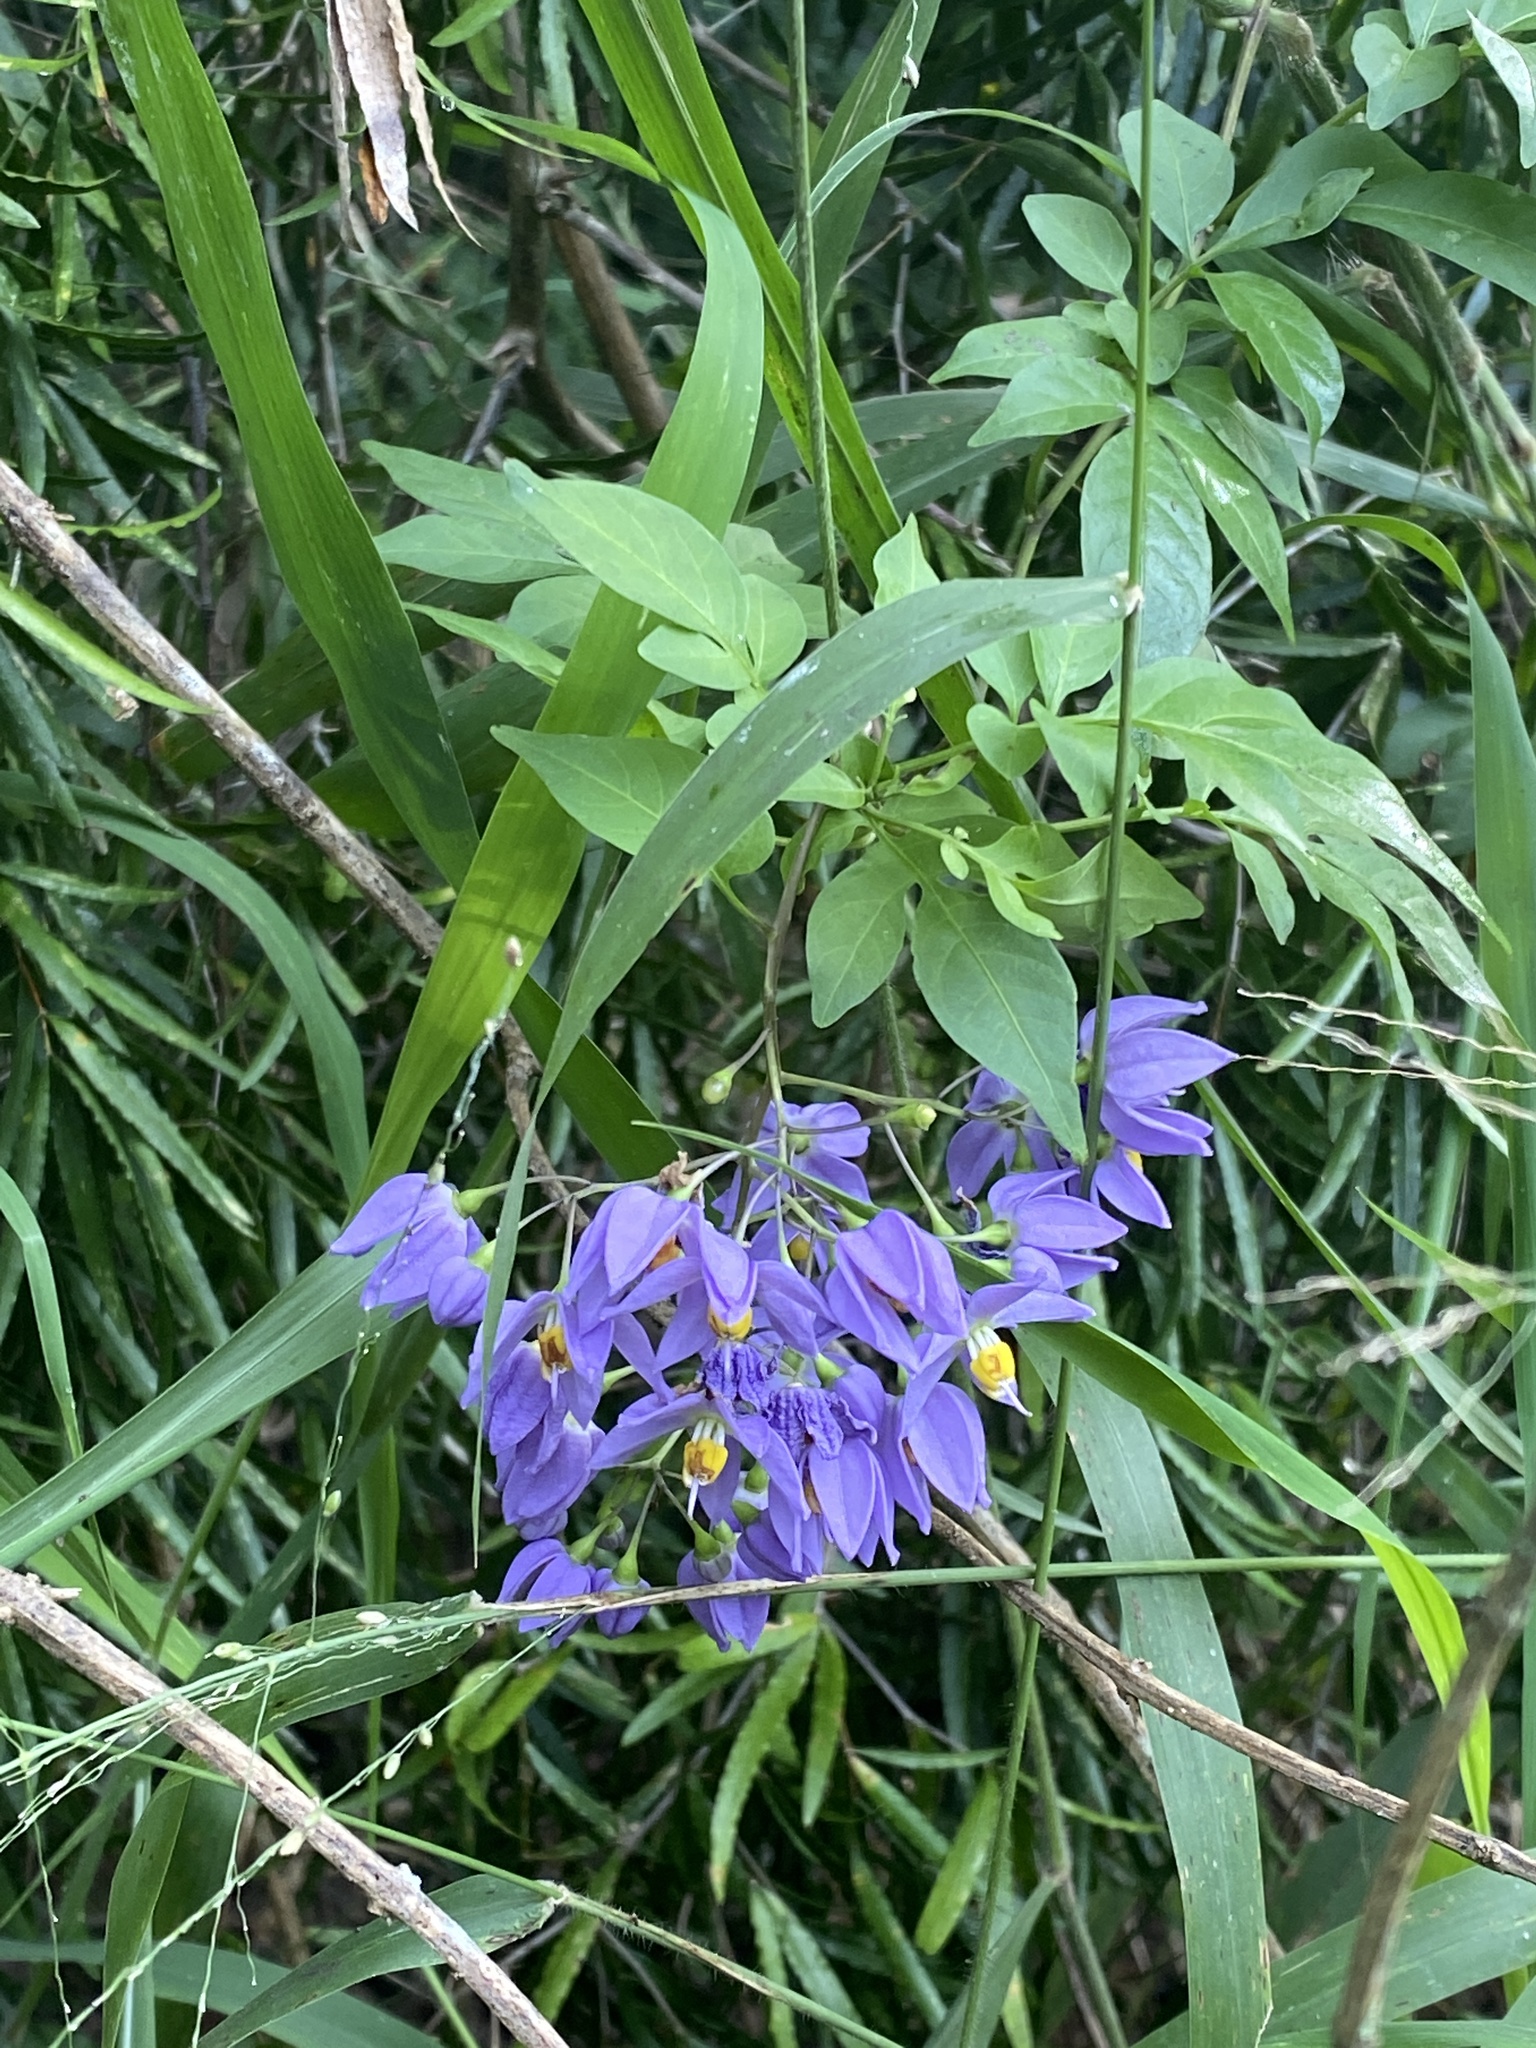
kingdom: Plantae
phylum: Tracheophyta
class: Magnoliopsida
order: Solanales
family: Solanaceae
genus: Solanum
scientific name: Solanum seaforthianum
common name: Brazilian nightshade
